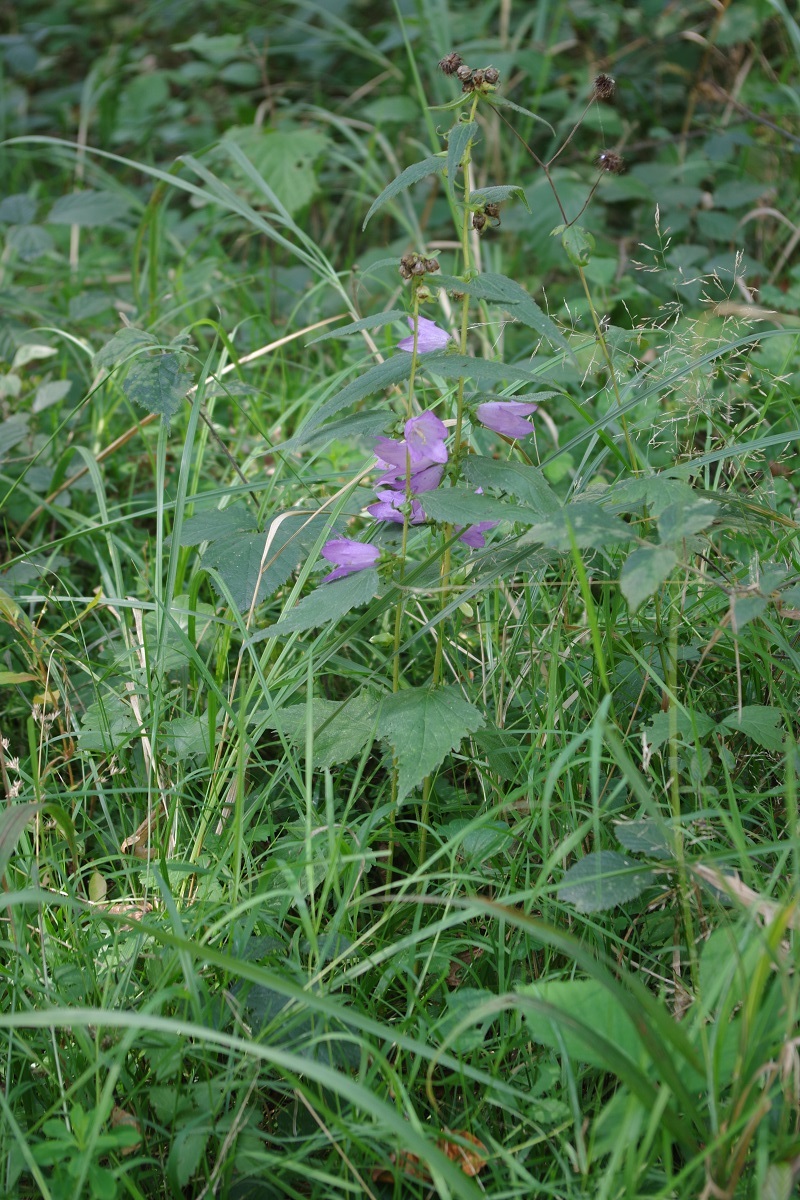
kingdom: Plantae
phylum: Tracheophyta
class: Magnoliopsida
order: Asterales
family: Campanulaceae
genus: Campanula
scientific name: Campanula trachelium
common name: Nettle-leaved bellflower
